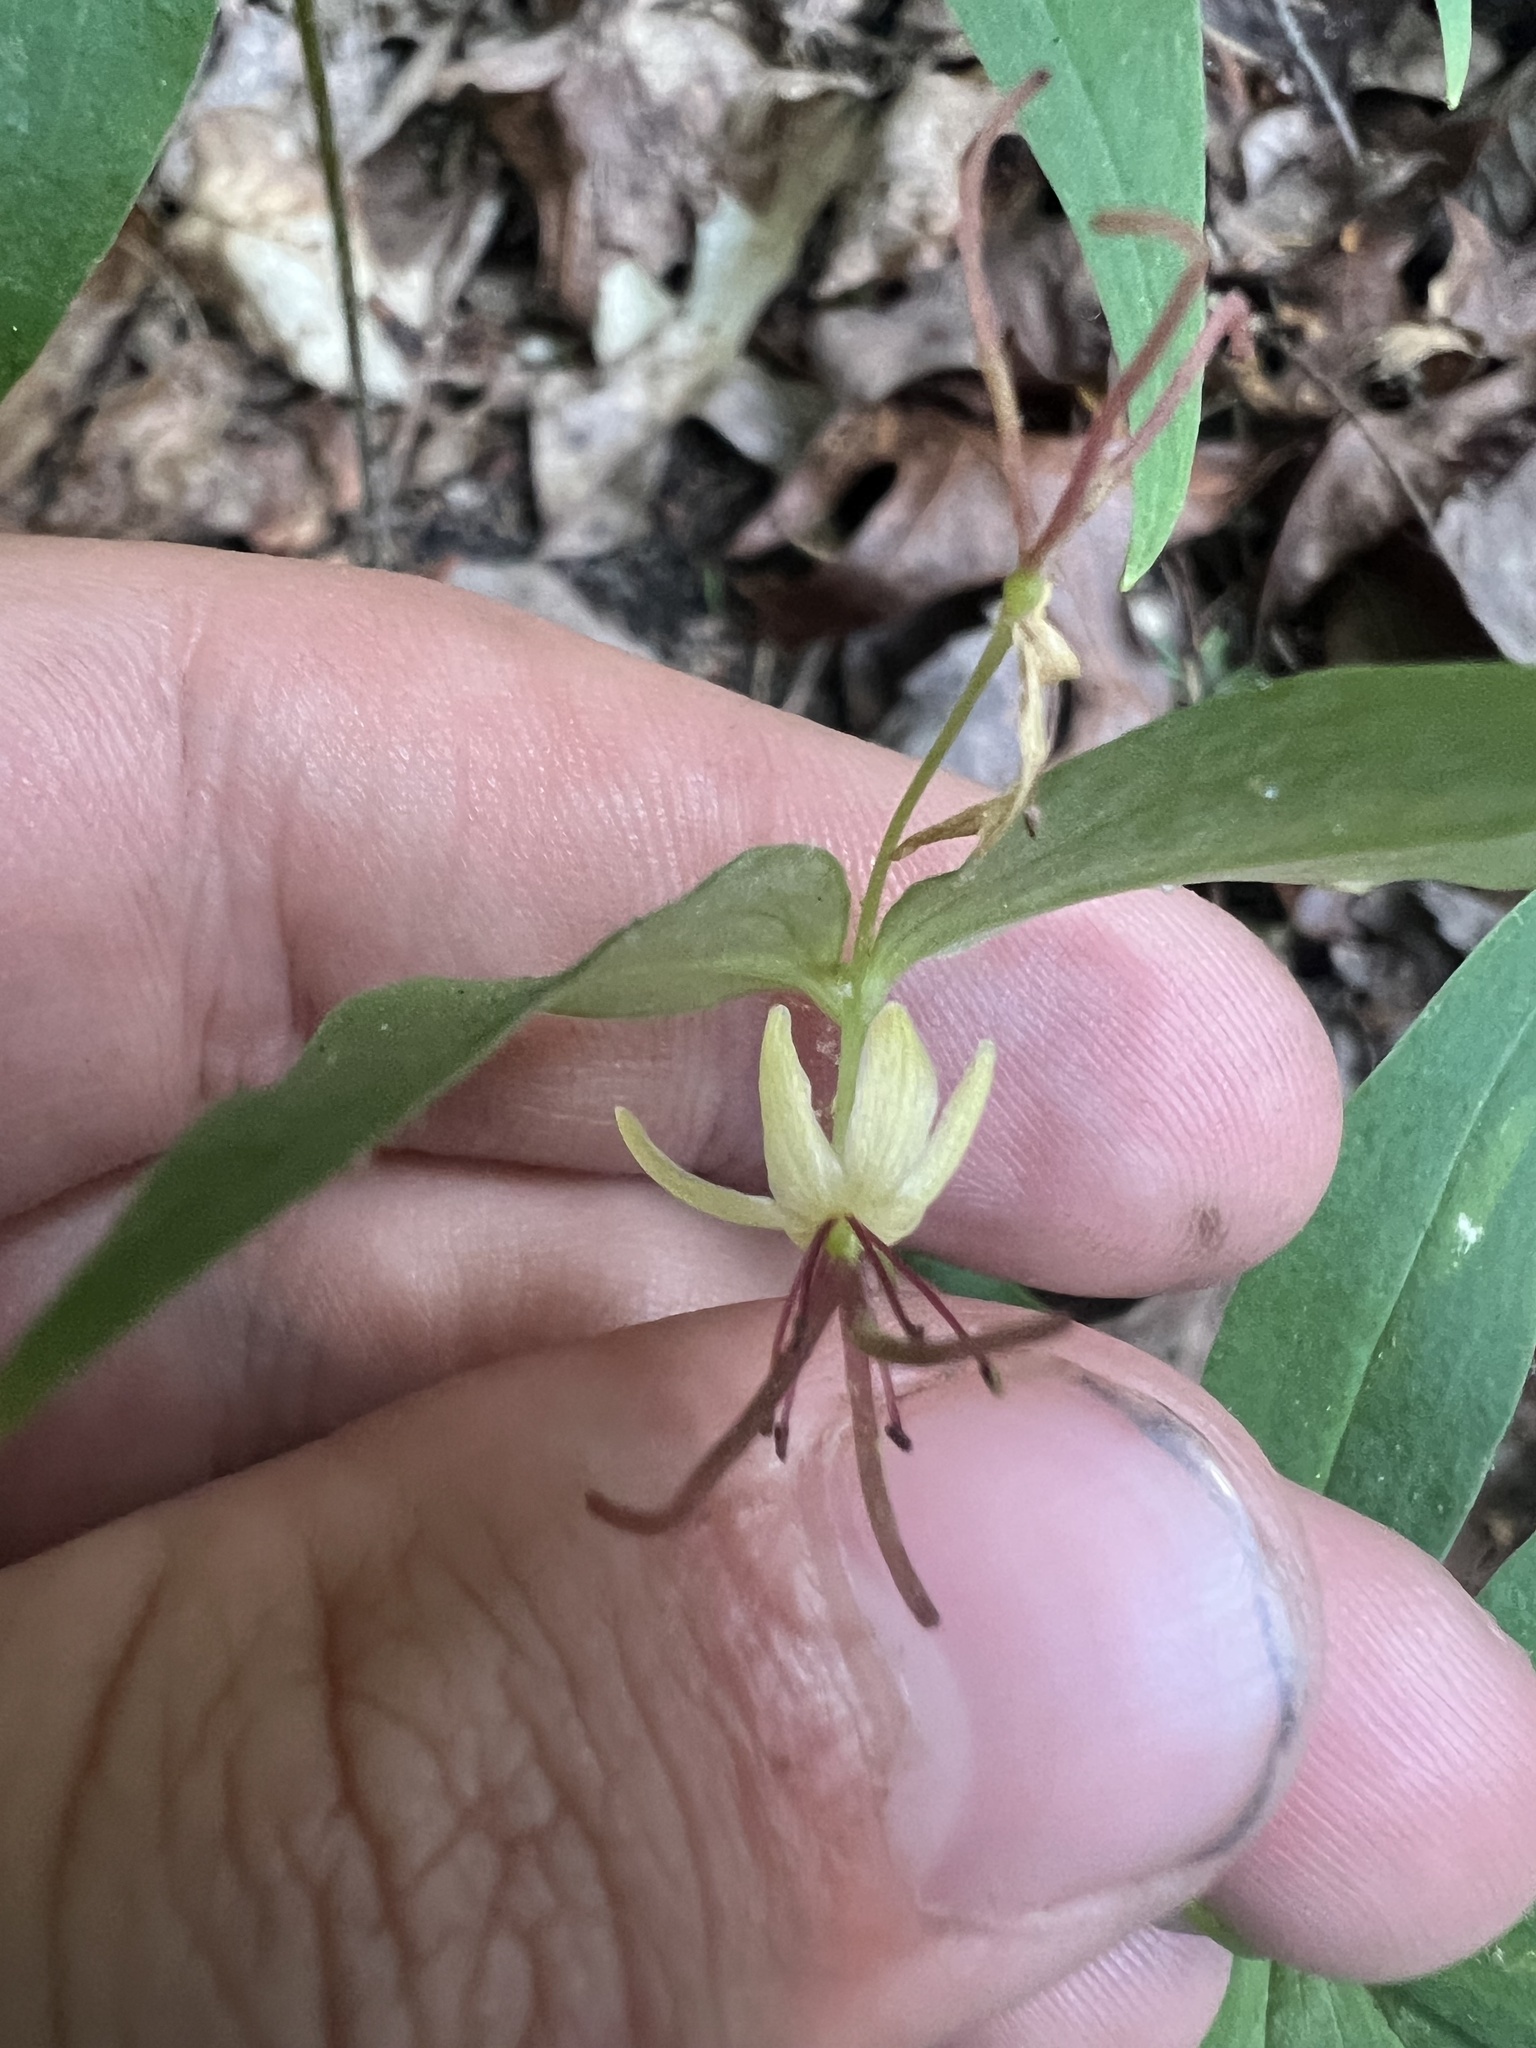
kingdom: Plantae
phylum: Tracheophyta
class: Liliopsida
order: Liliales
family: Liliaceae
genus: Medeola
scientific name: Medeola virginiana
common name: Indian cucumber-root
